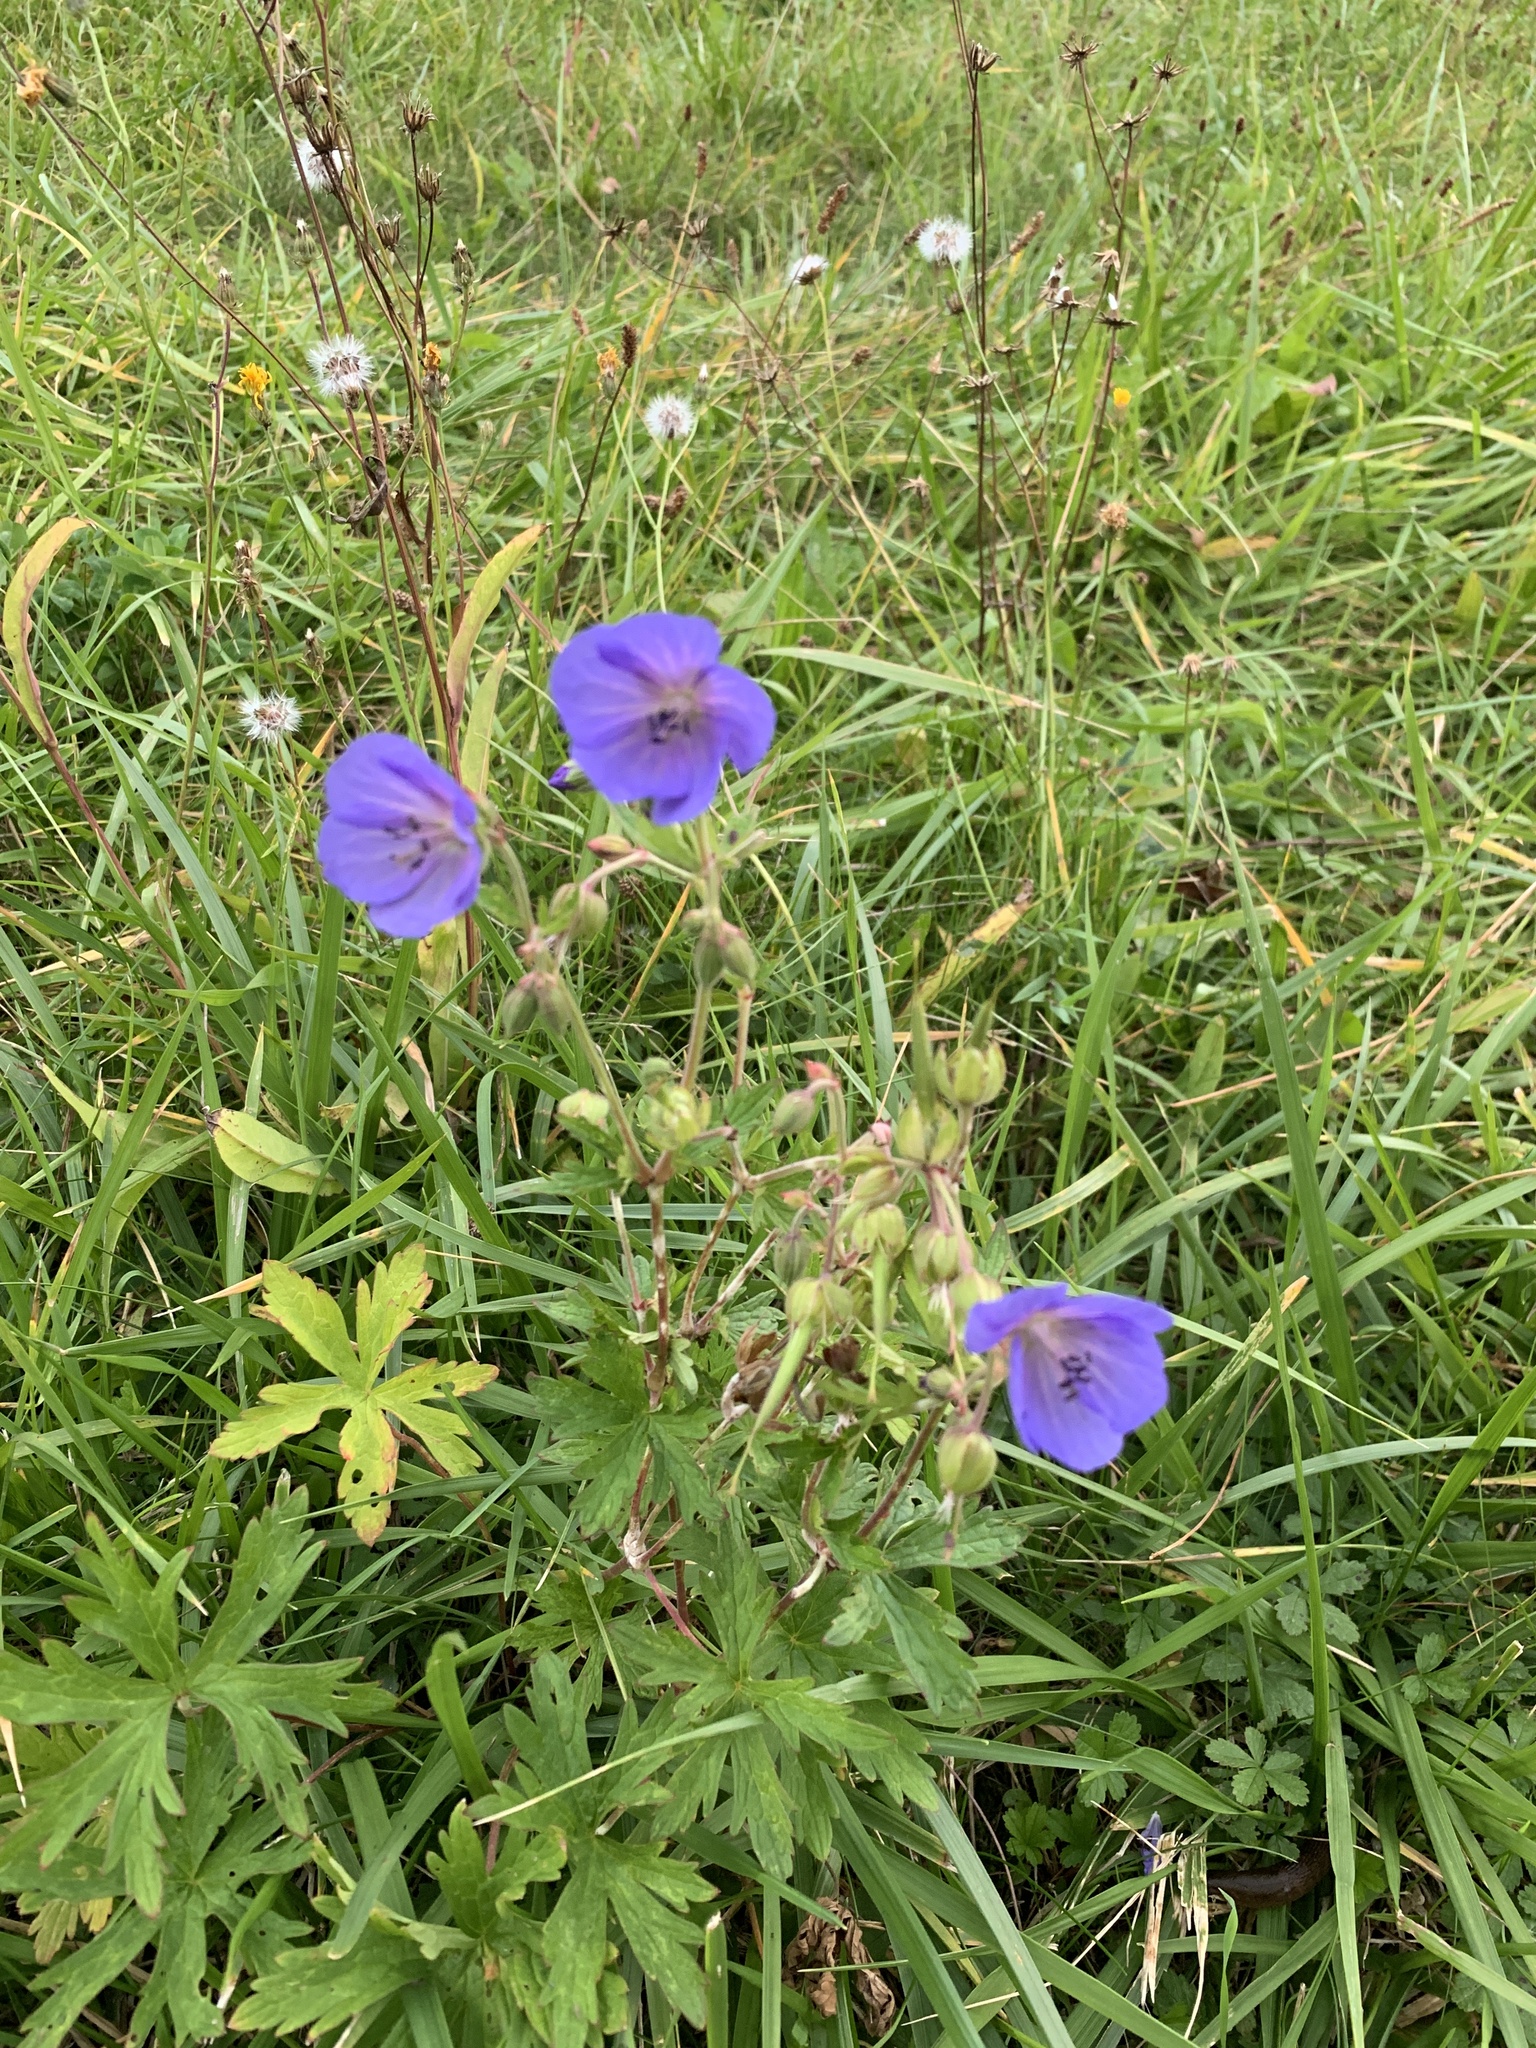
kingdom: Plantae
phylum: Tracheophyta
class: Magnoliopsida
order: Geraniales
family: Geraniaceae
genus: Geranium
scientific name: Geranium pratense
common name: Meadow crane's-bill
